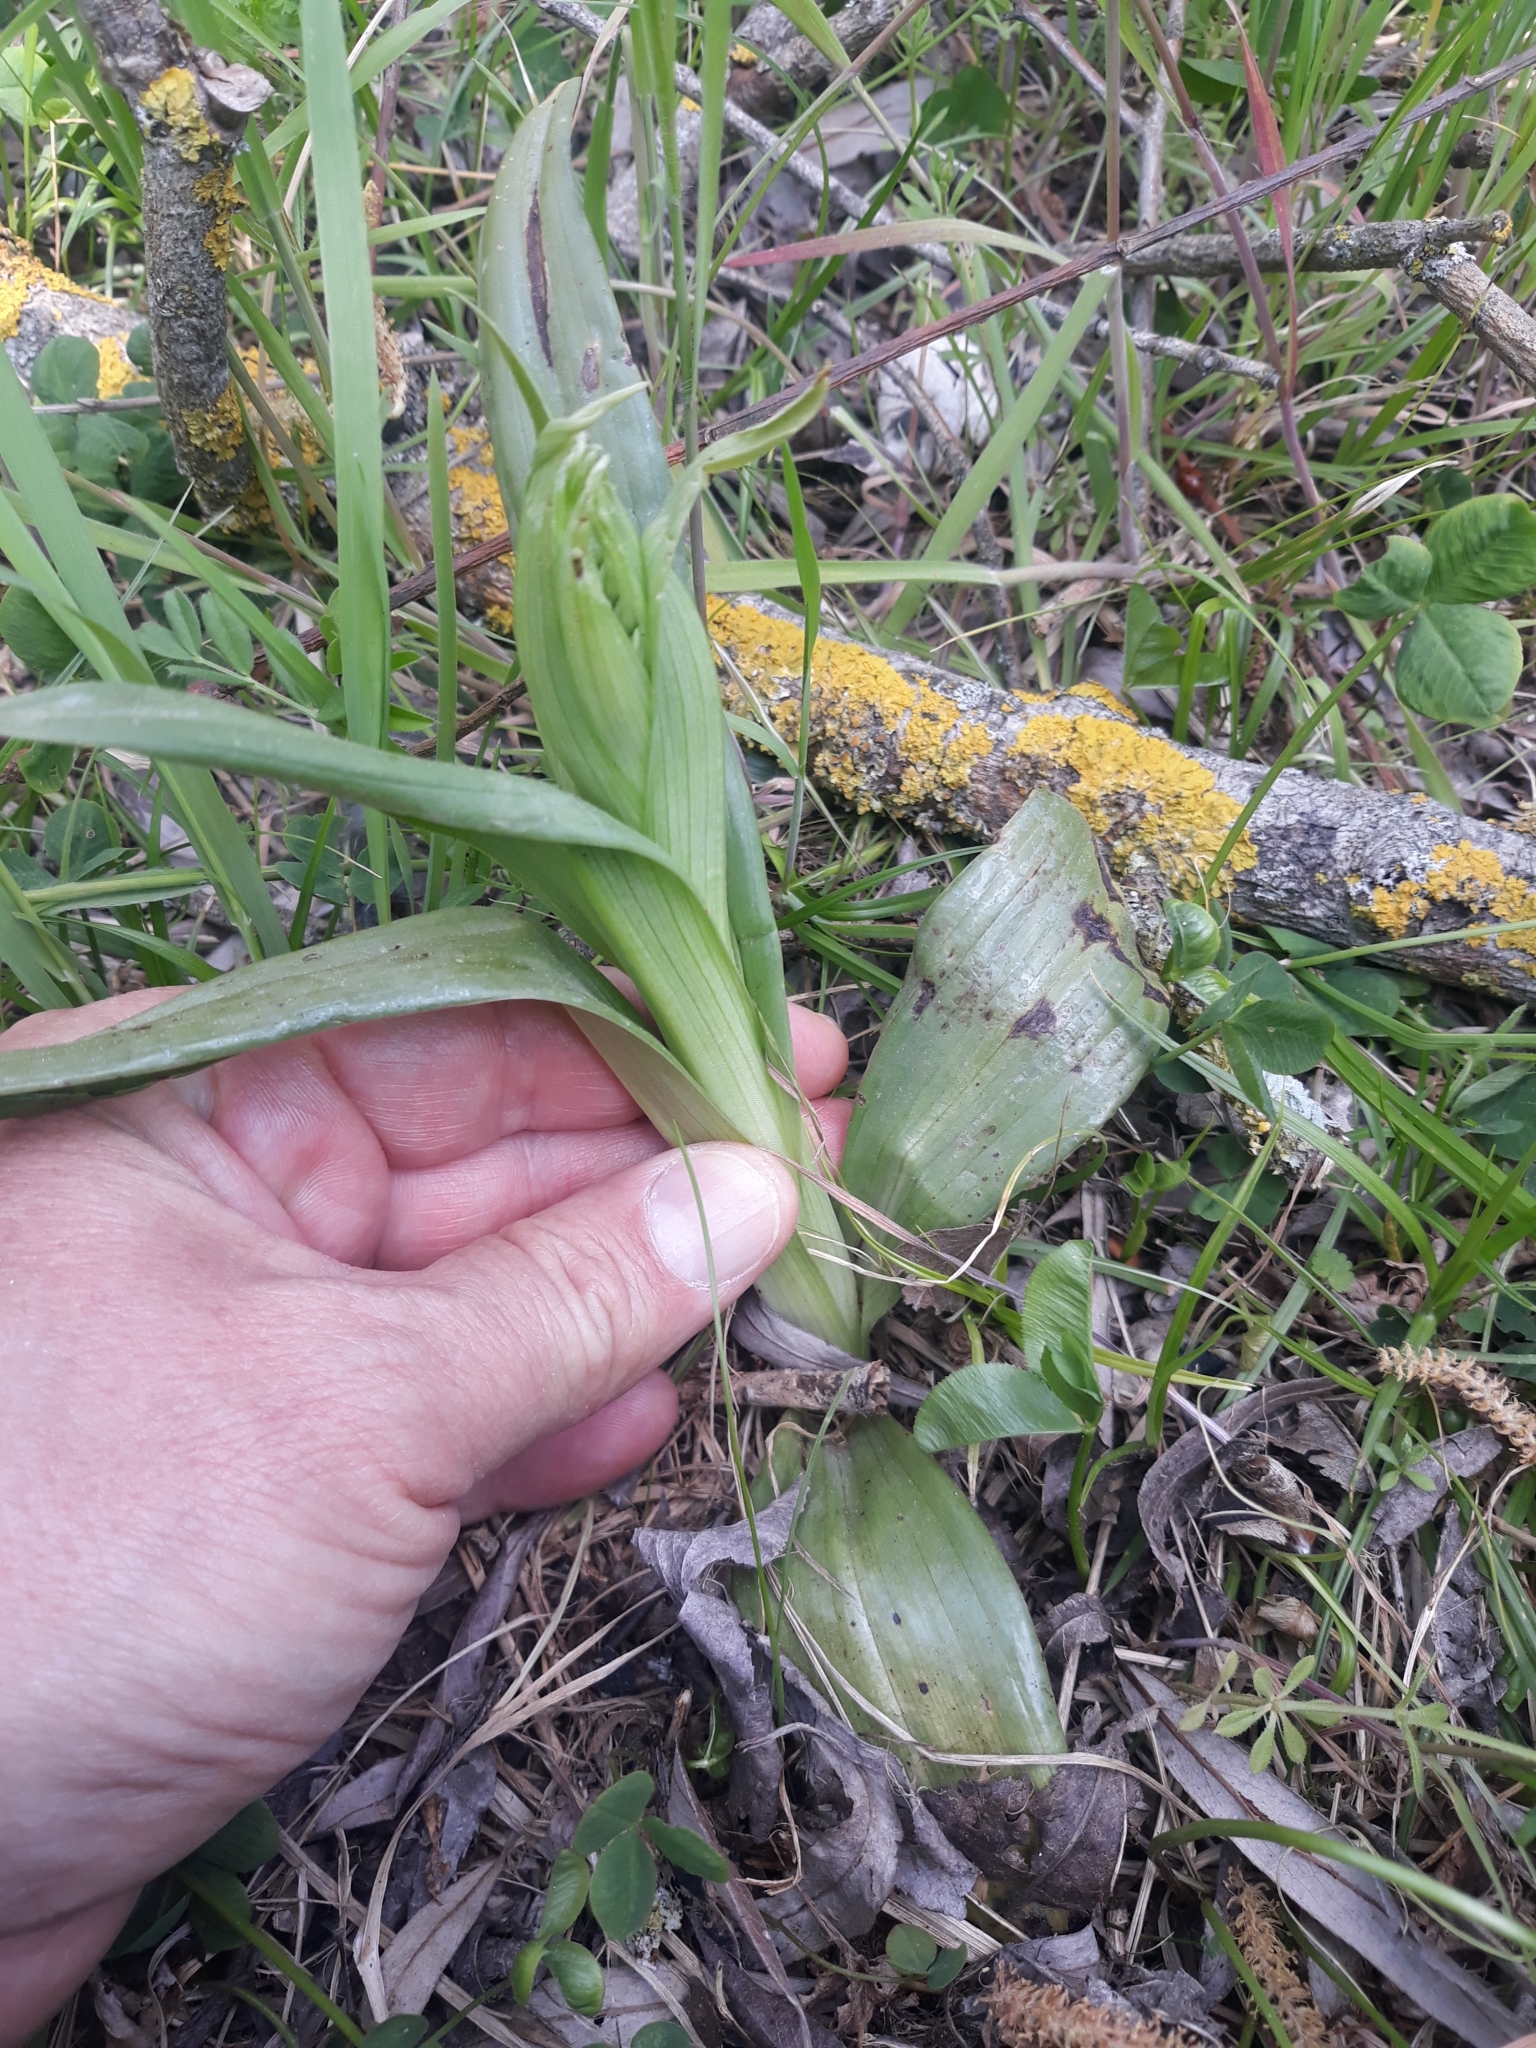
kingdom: Plantae
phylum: Tracheophyta
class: Liliopsida
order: Asparagales
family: Orchidaceae
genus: Himantoglossum
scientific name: Himantoglossum hircinum
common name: Lizard orchid
